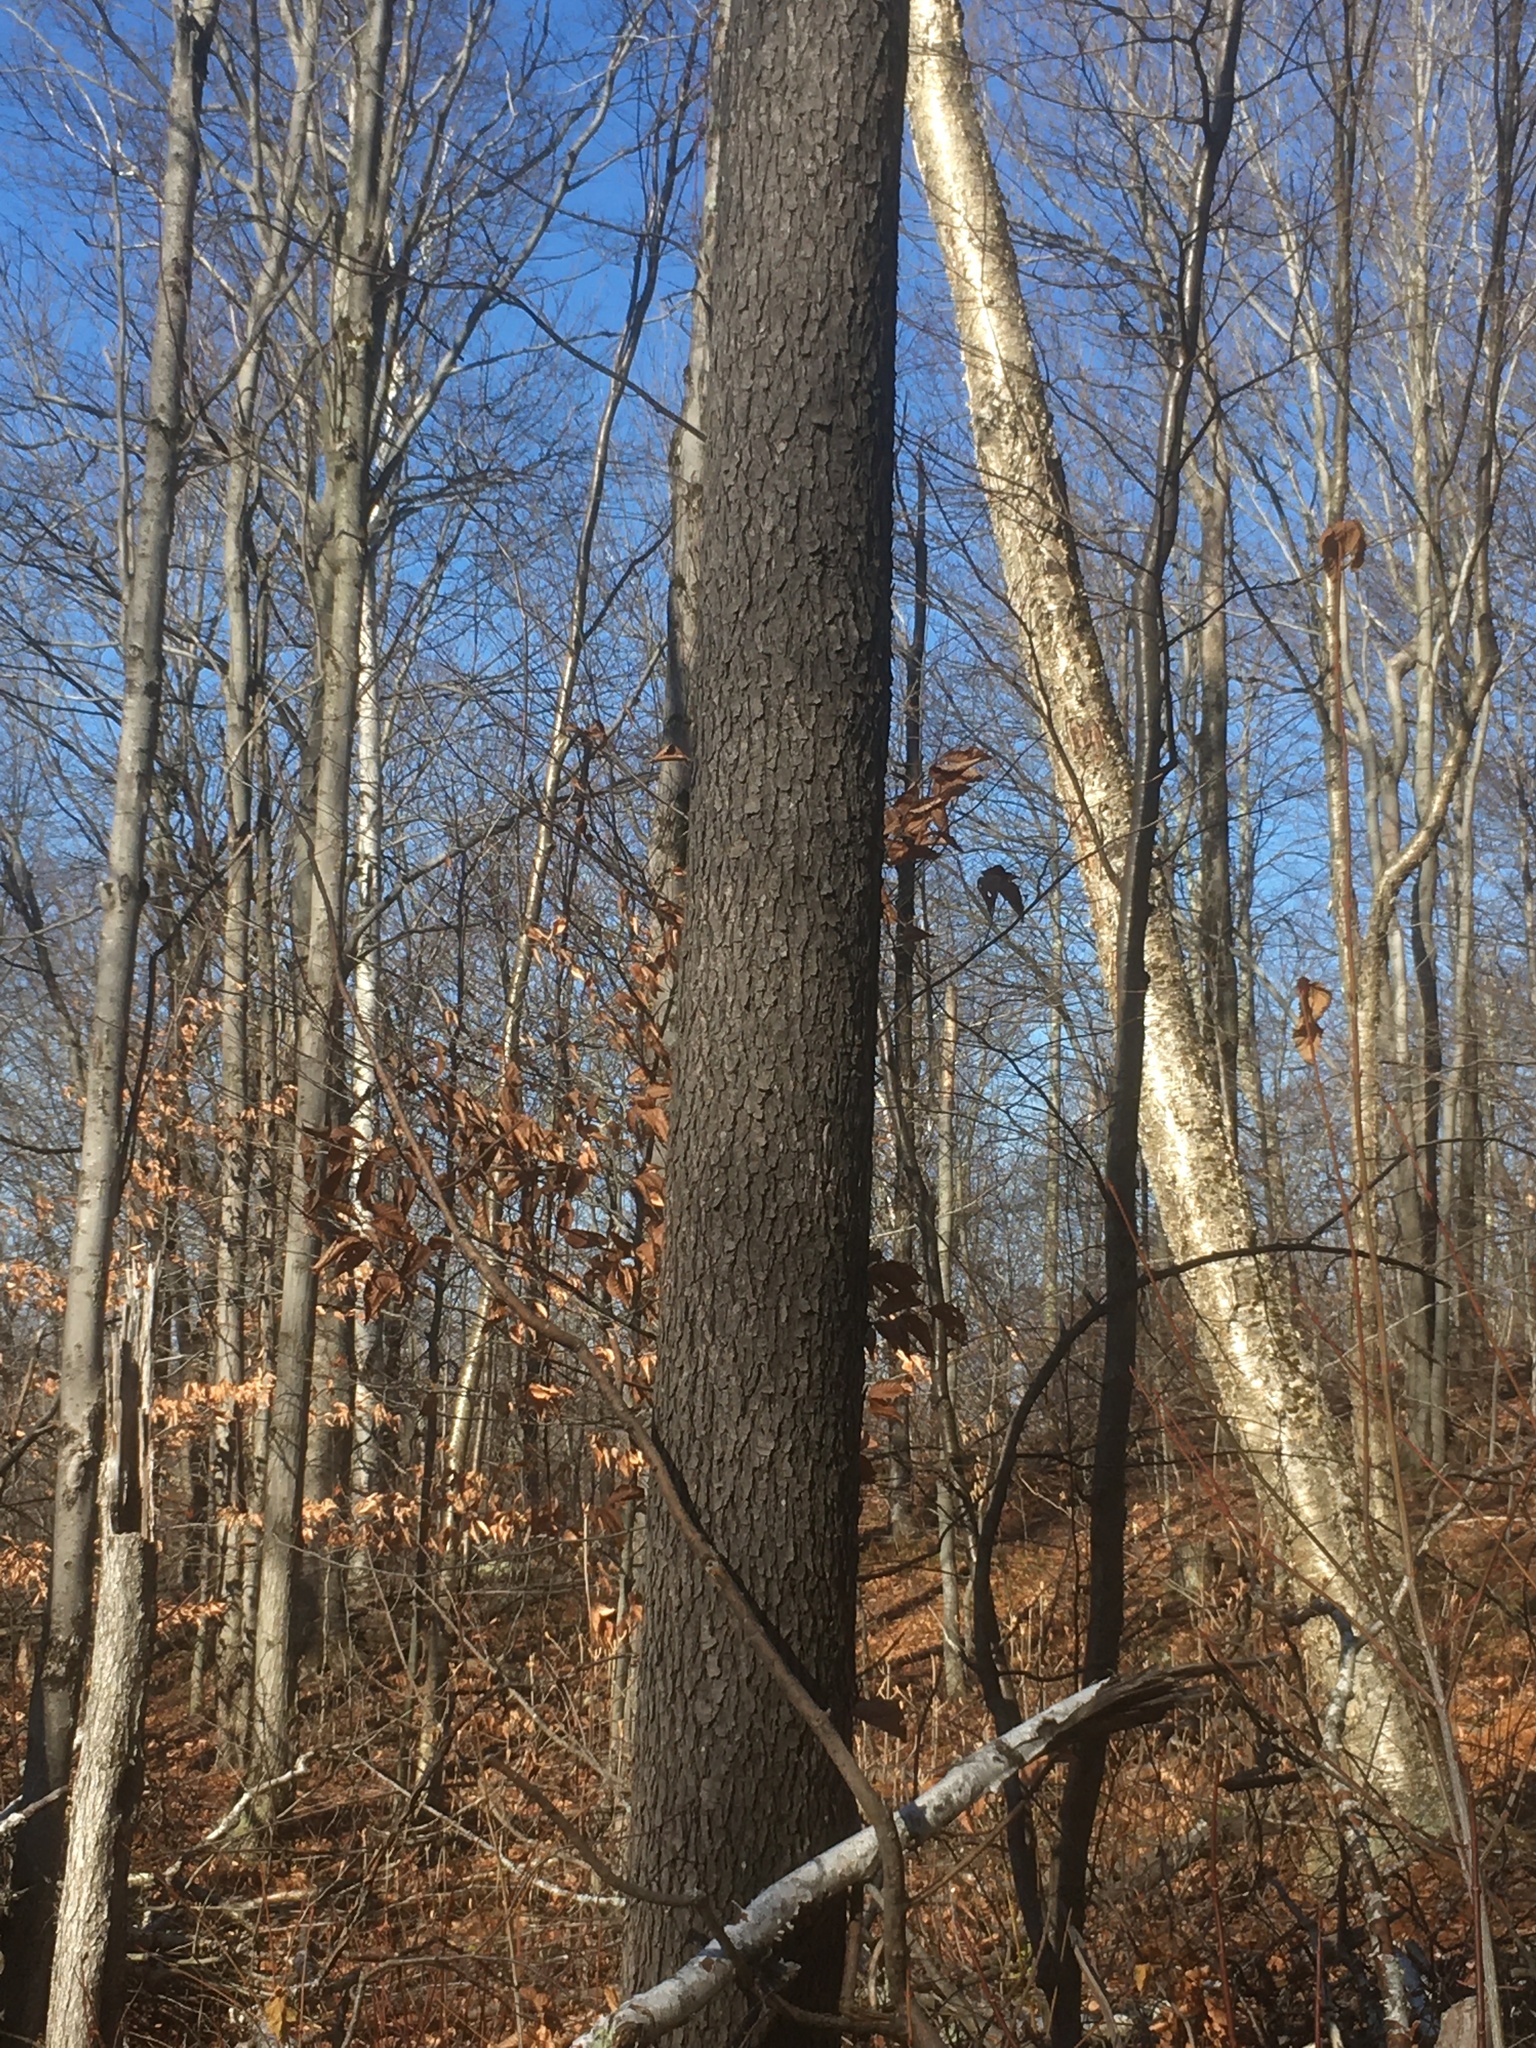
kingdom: Plantae
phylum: Tracheophyta
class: Magnoliopsida
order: Rosales
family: Rosaceae
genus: Prunus
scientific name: Prunus serotina
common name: Black cherry
